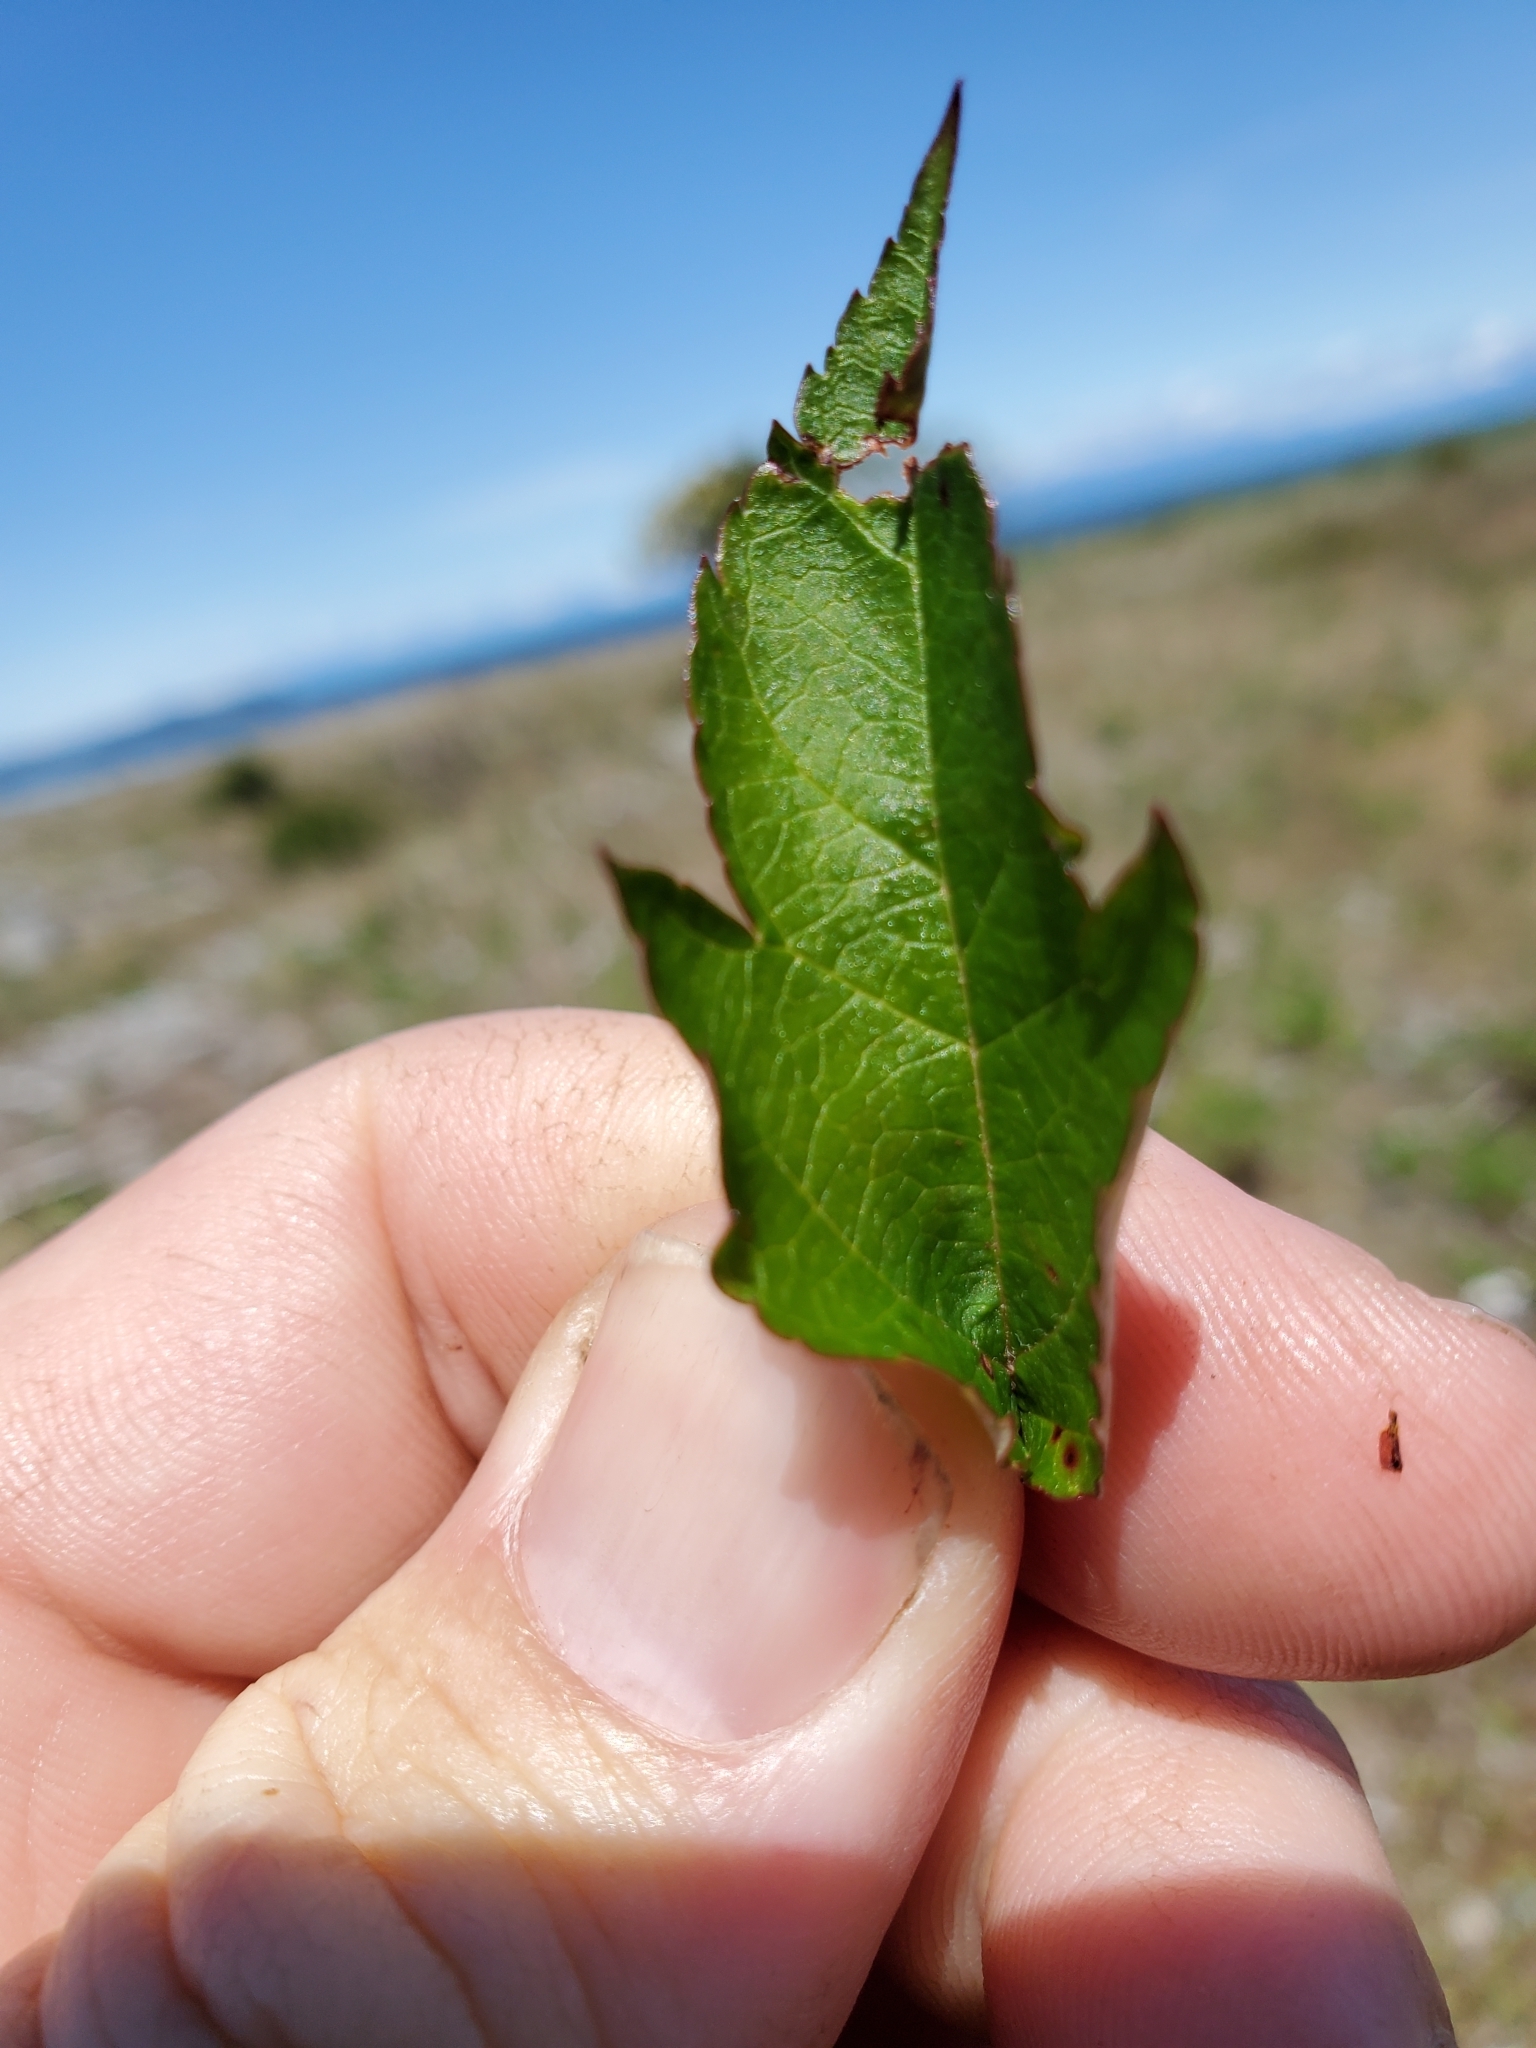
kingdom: Plantae
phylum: Tracheophyta
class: Magnoliopsida
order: Rosales
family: Rosaceae
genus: Malus
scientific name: Malus fusca
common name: Oregon crab apple
